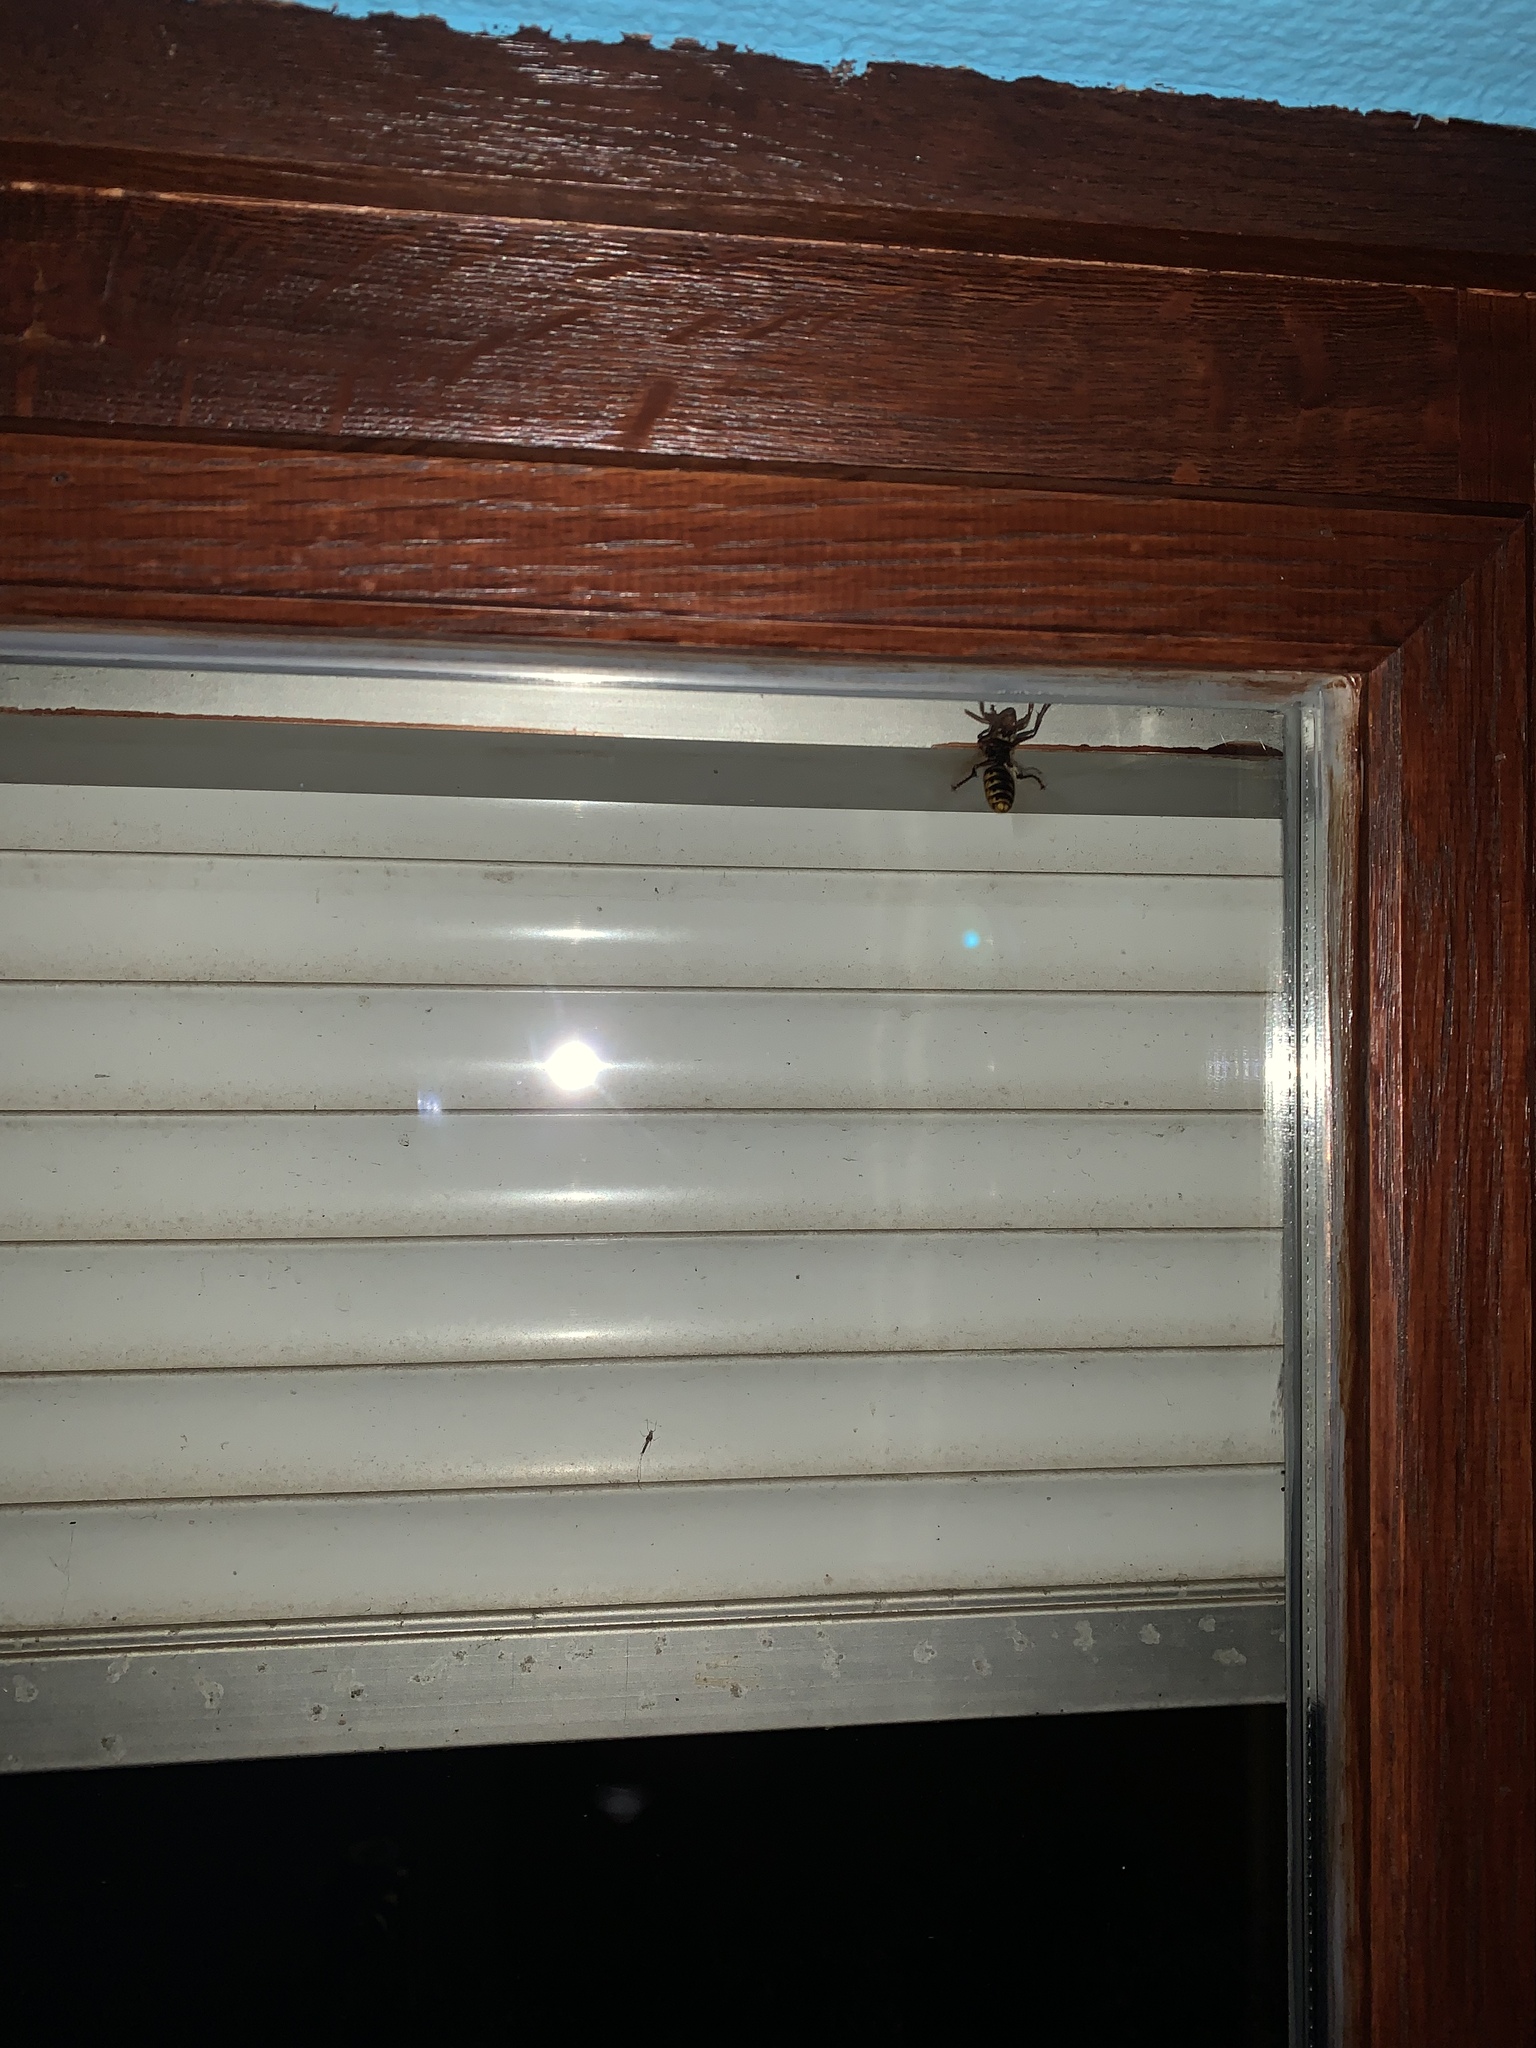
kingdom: Animalia
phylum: Arthropoda
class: Insecta
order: Hymenoptera
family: Vespidae
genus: Vespa
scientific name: Vespa crabro
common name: Hornet
